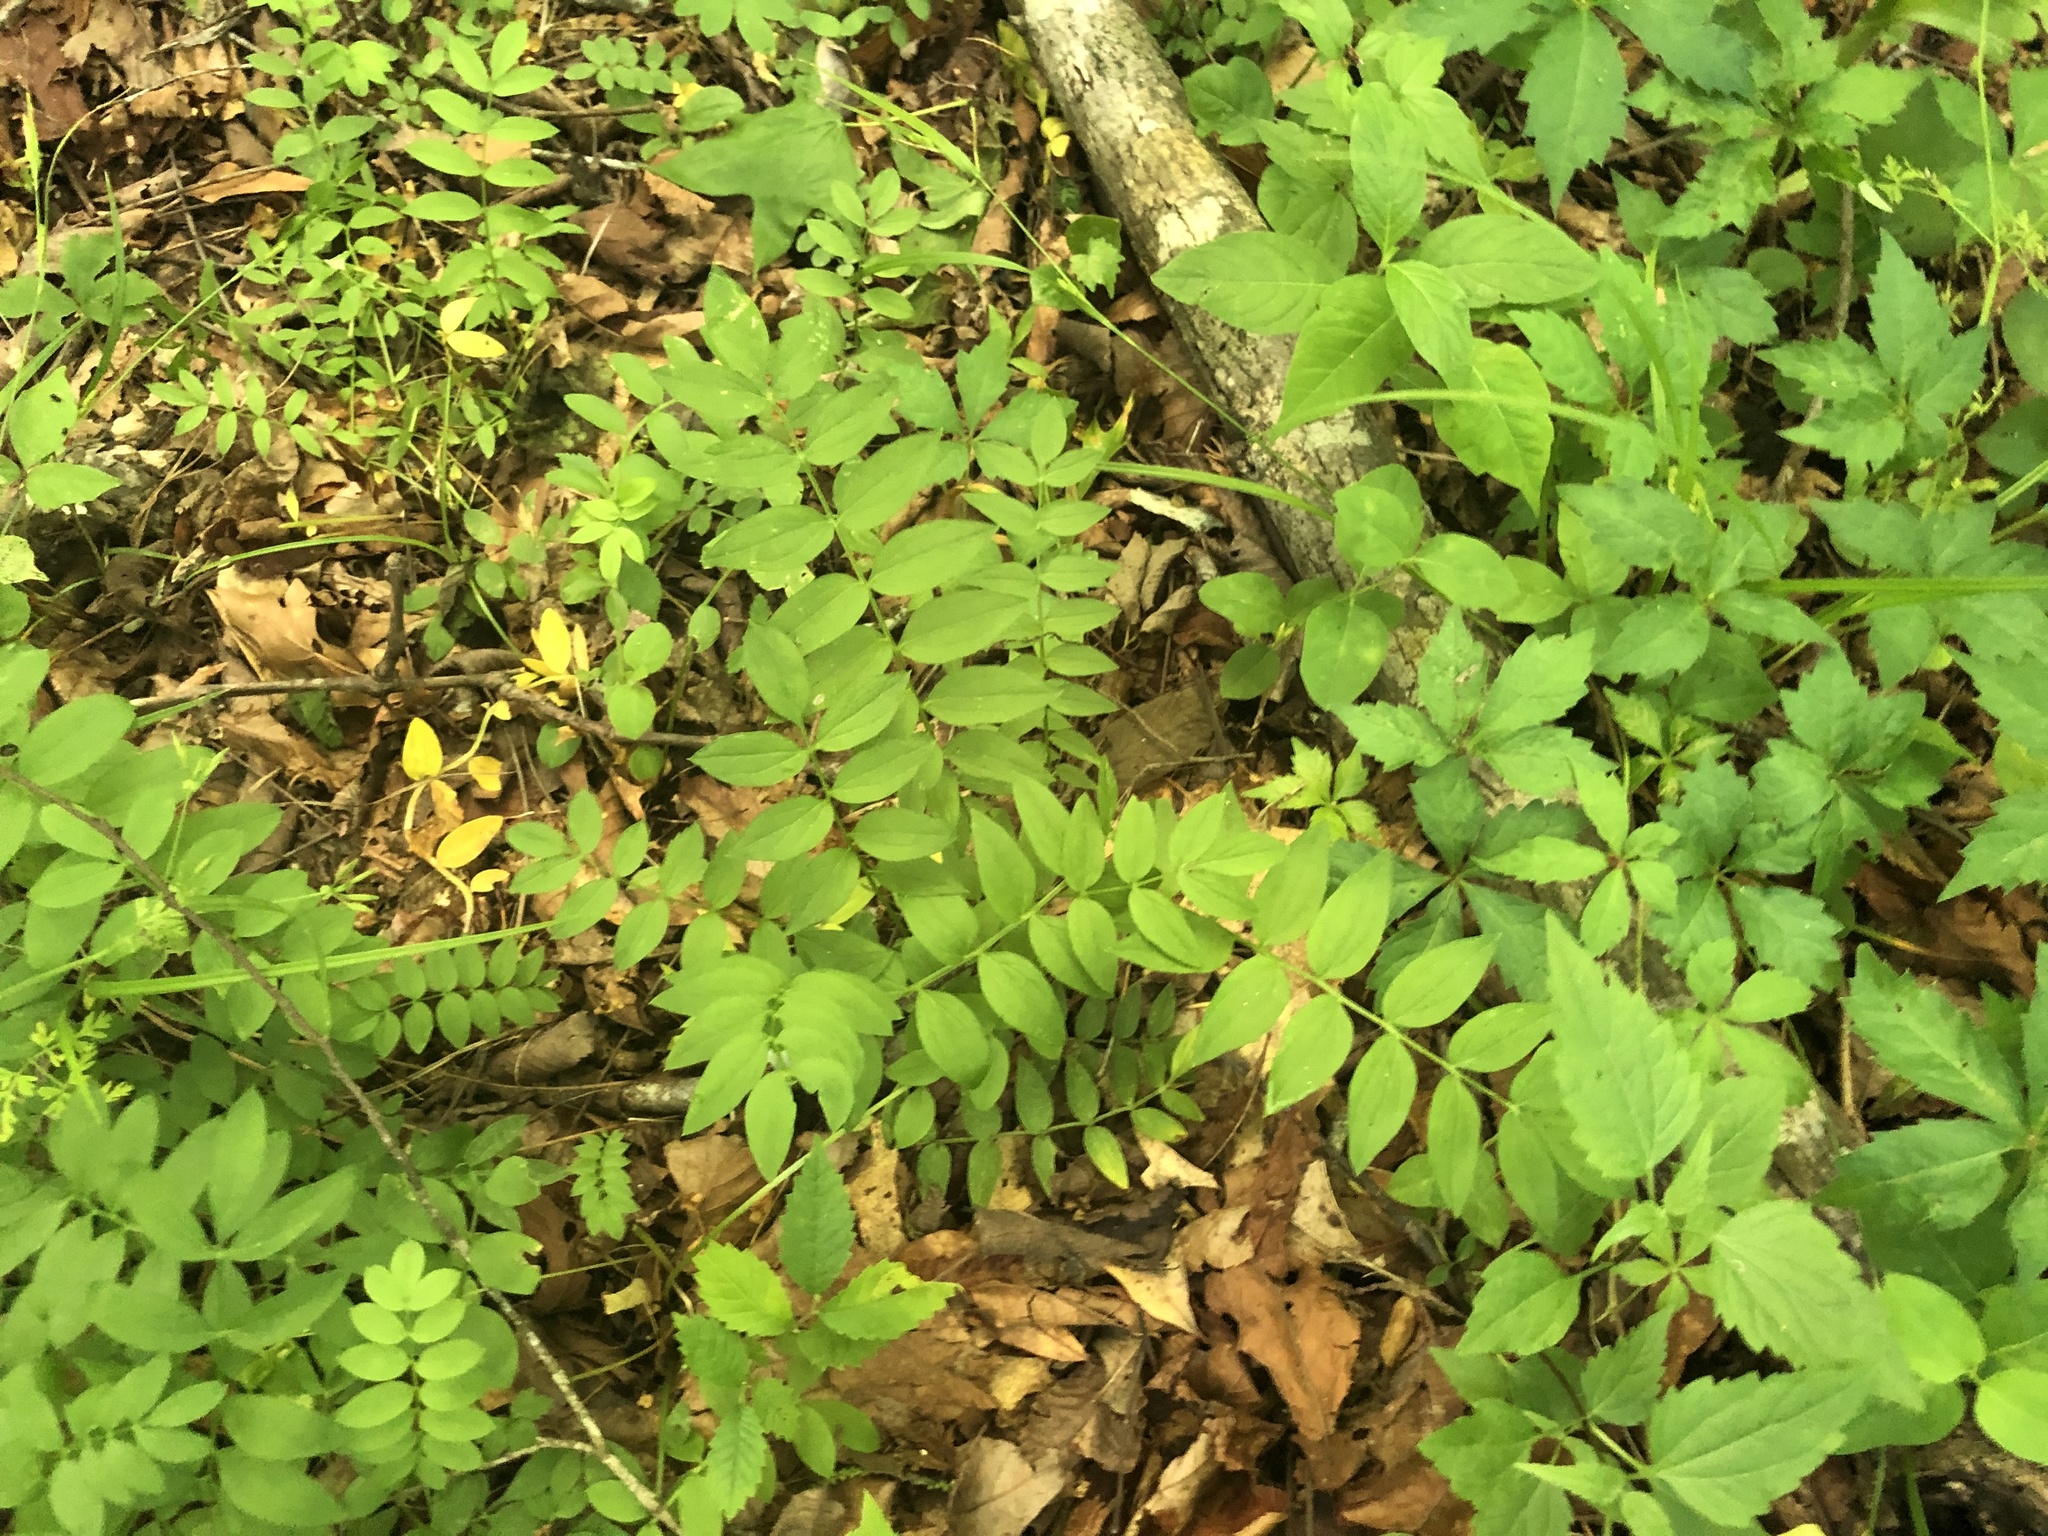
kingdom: Plantae
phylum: Tracheophyta
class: Magnoliopsida
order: Ericales
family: Polemoniaceae
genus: Polemonium
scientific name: Polemonium reptans
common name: Creeping jacob's-ladder
